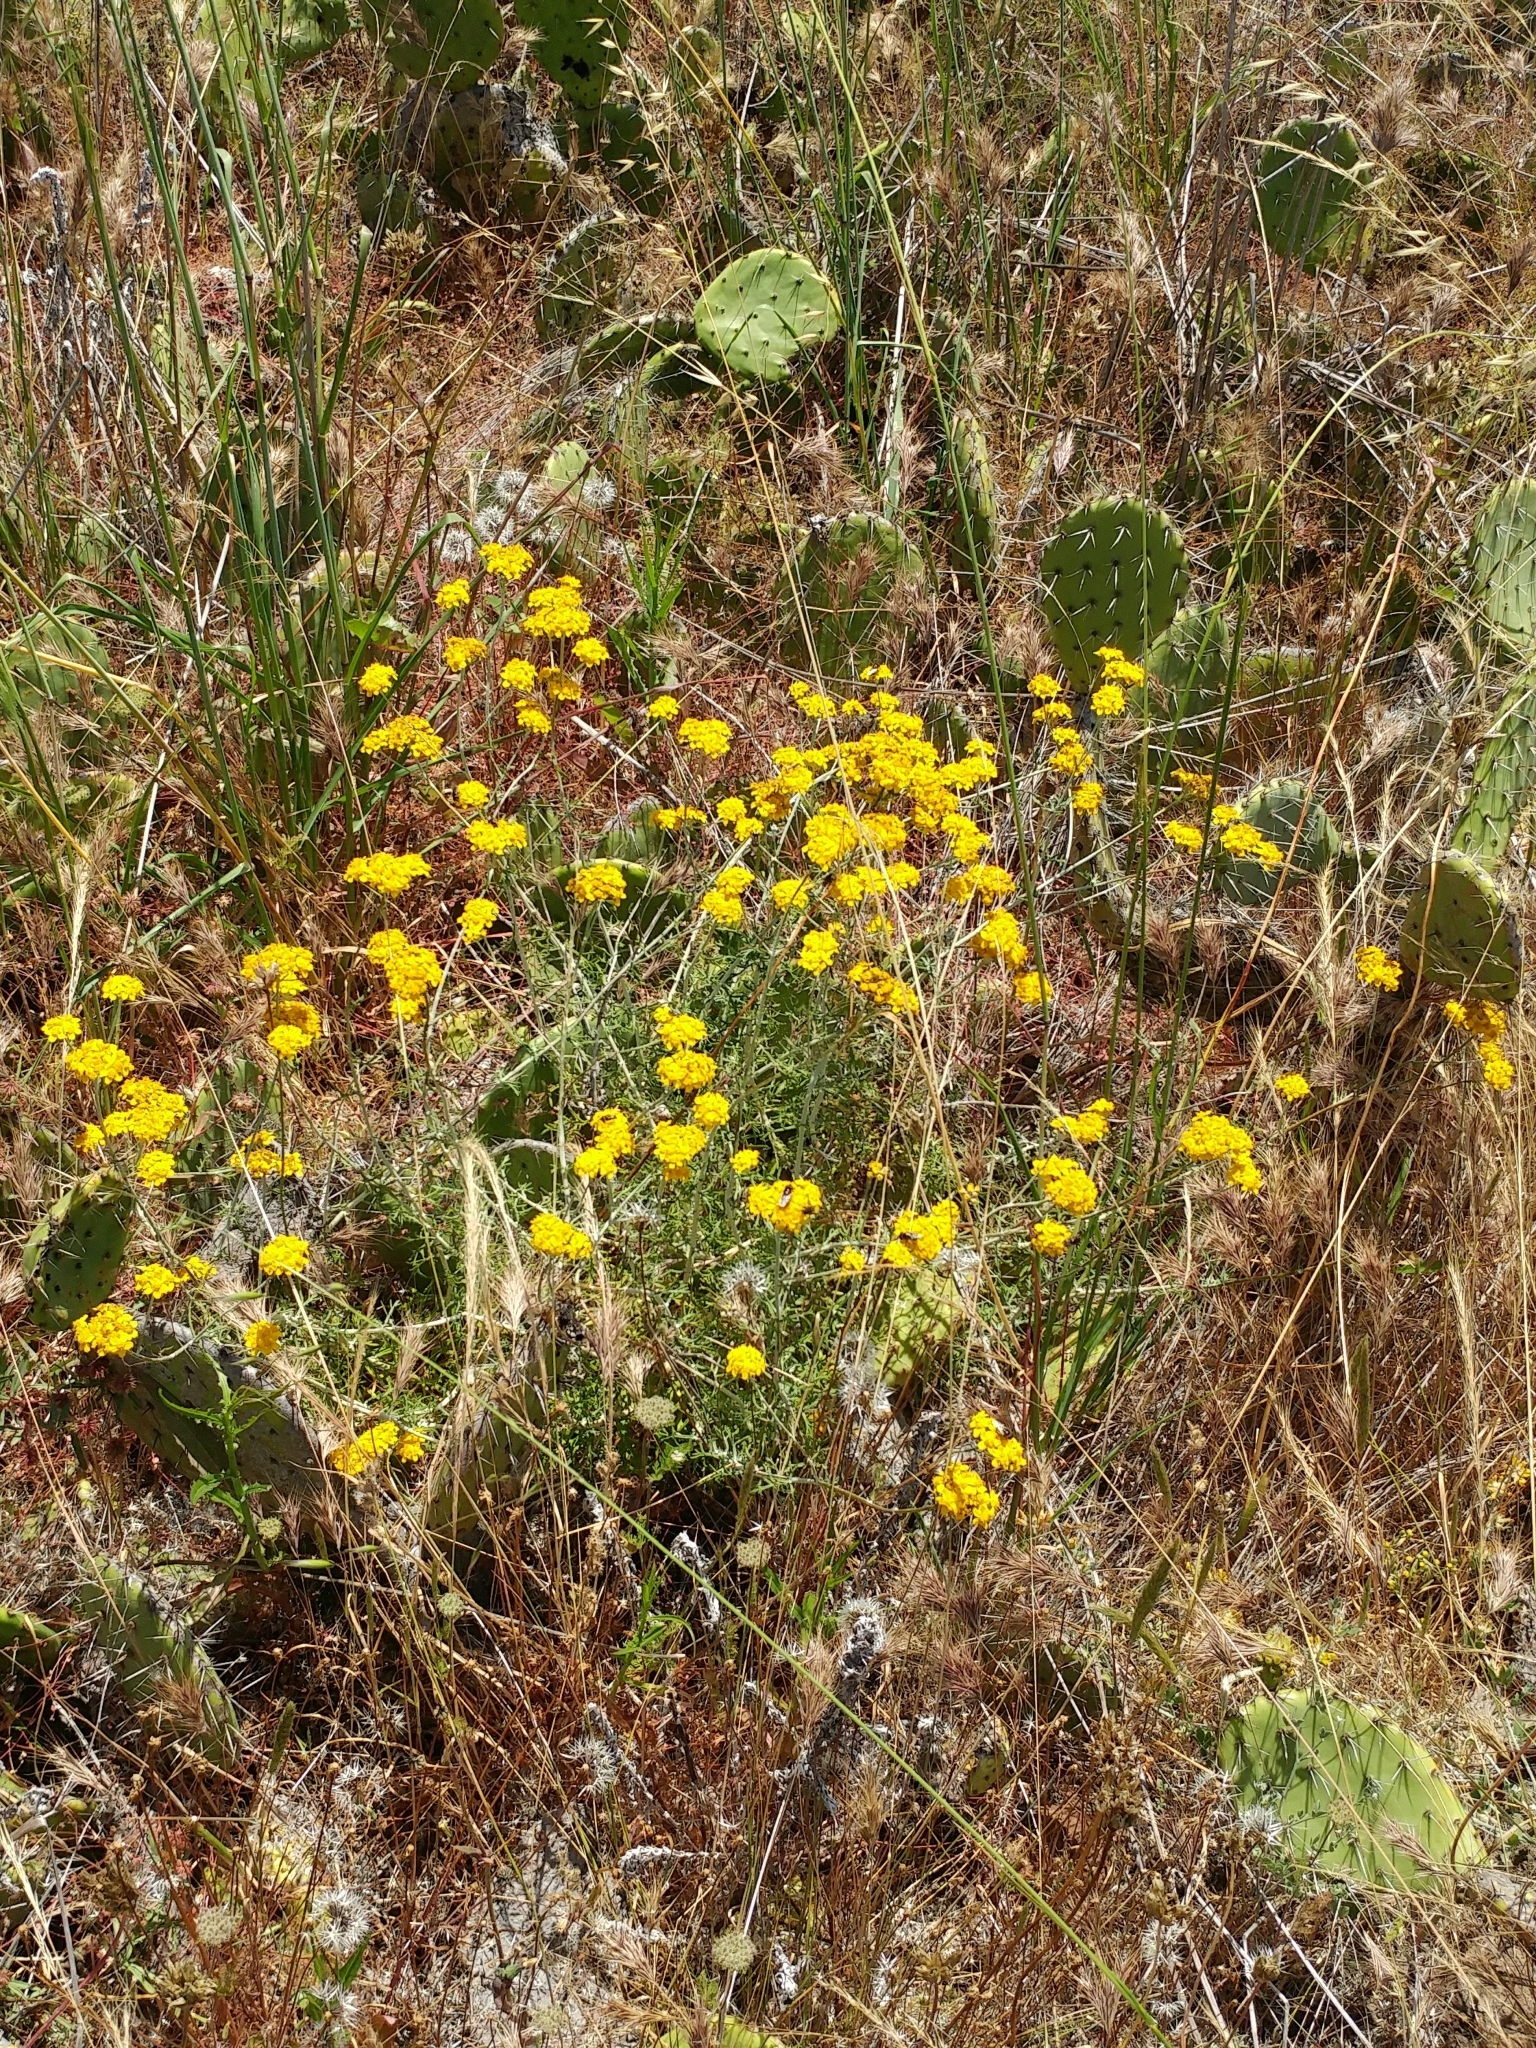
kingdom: Plantae
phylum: Tracheophyta
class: Magnoliopsida
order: Asterales
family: Asteraceae
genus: Eriophyllum
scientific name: Eriophyllum confertiflorum
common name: Golden-yarrow
